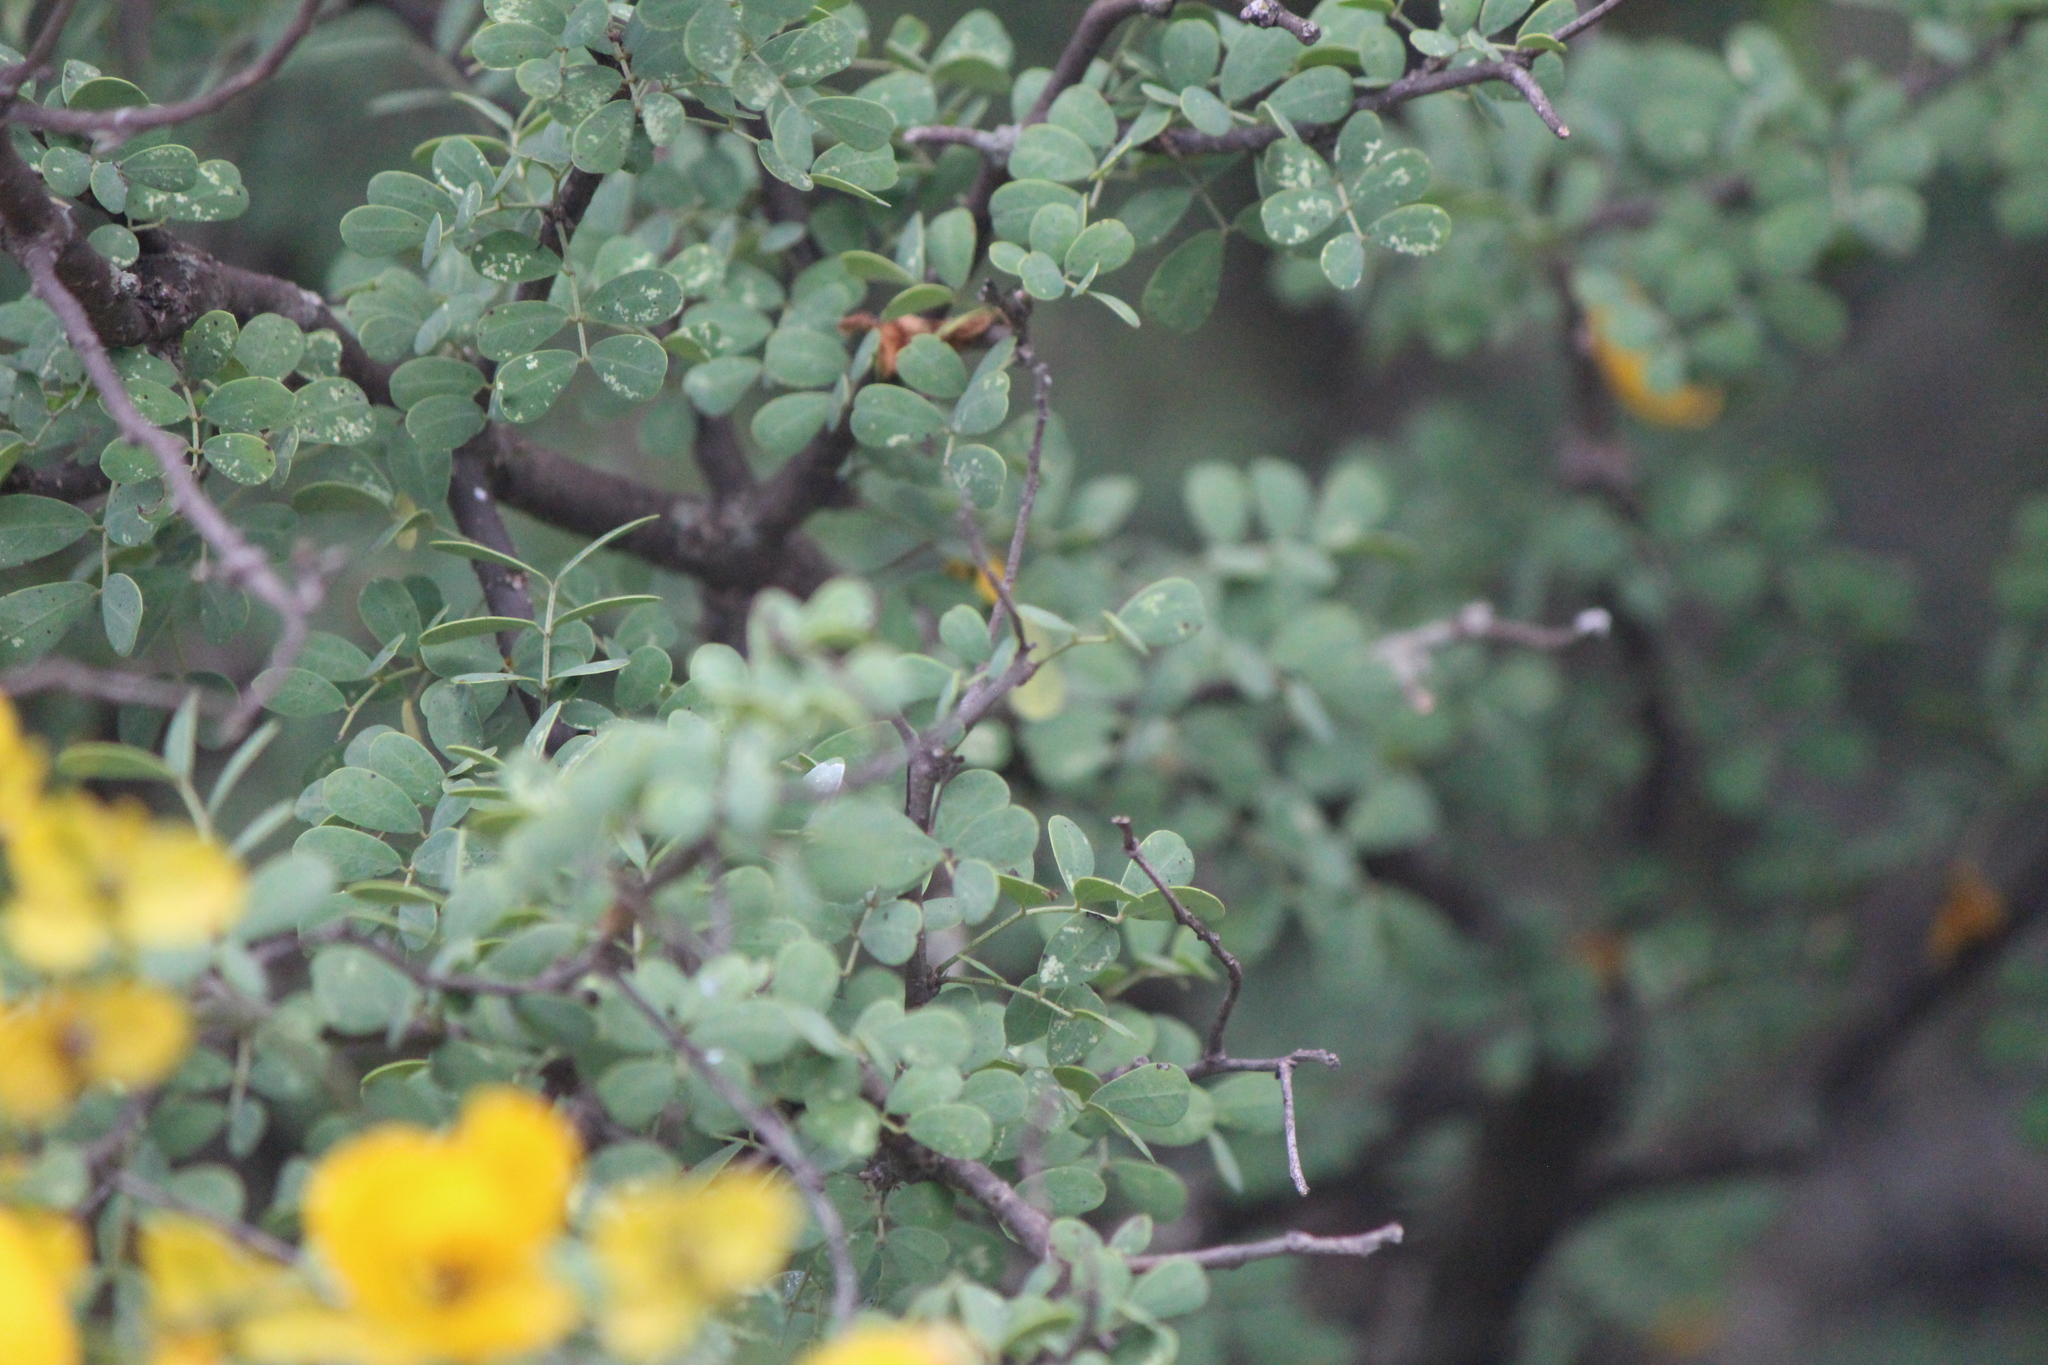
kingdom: Plantae
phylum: Tracheophyta
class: Magnoliopsida
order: Fabales
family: Fabaceae
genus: Senna
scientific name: Senna wislizeni
